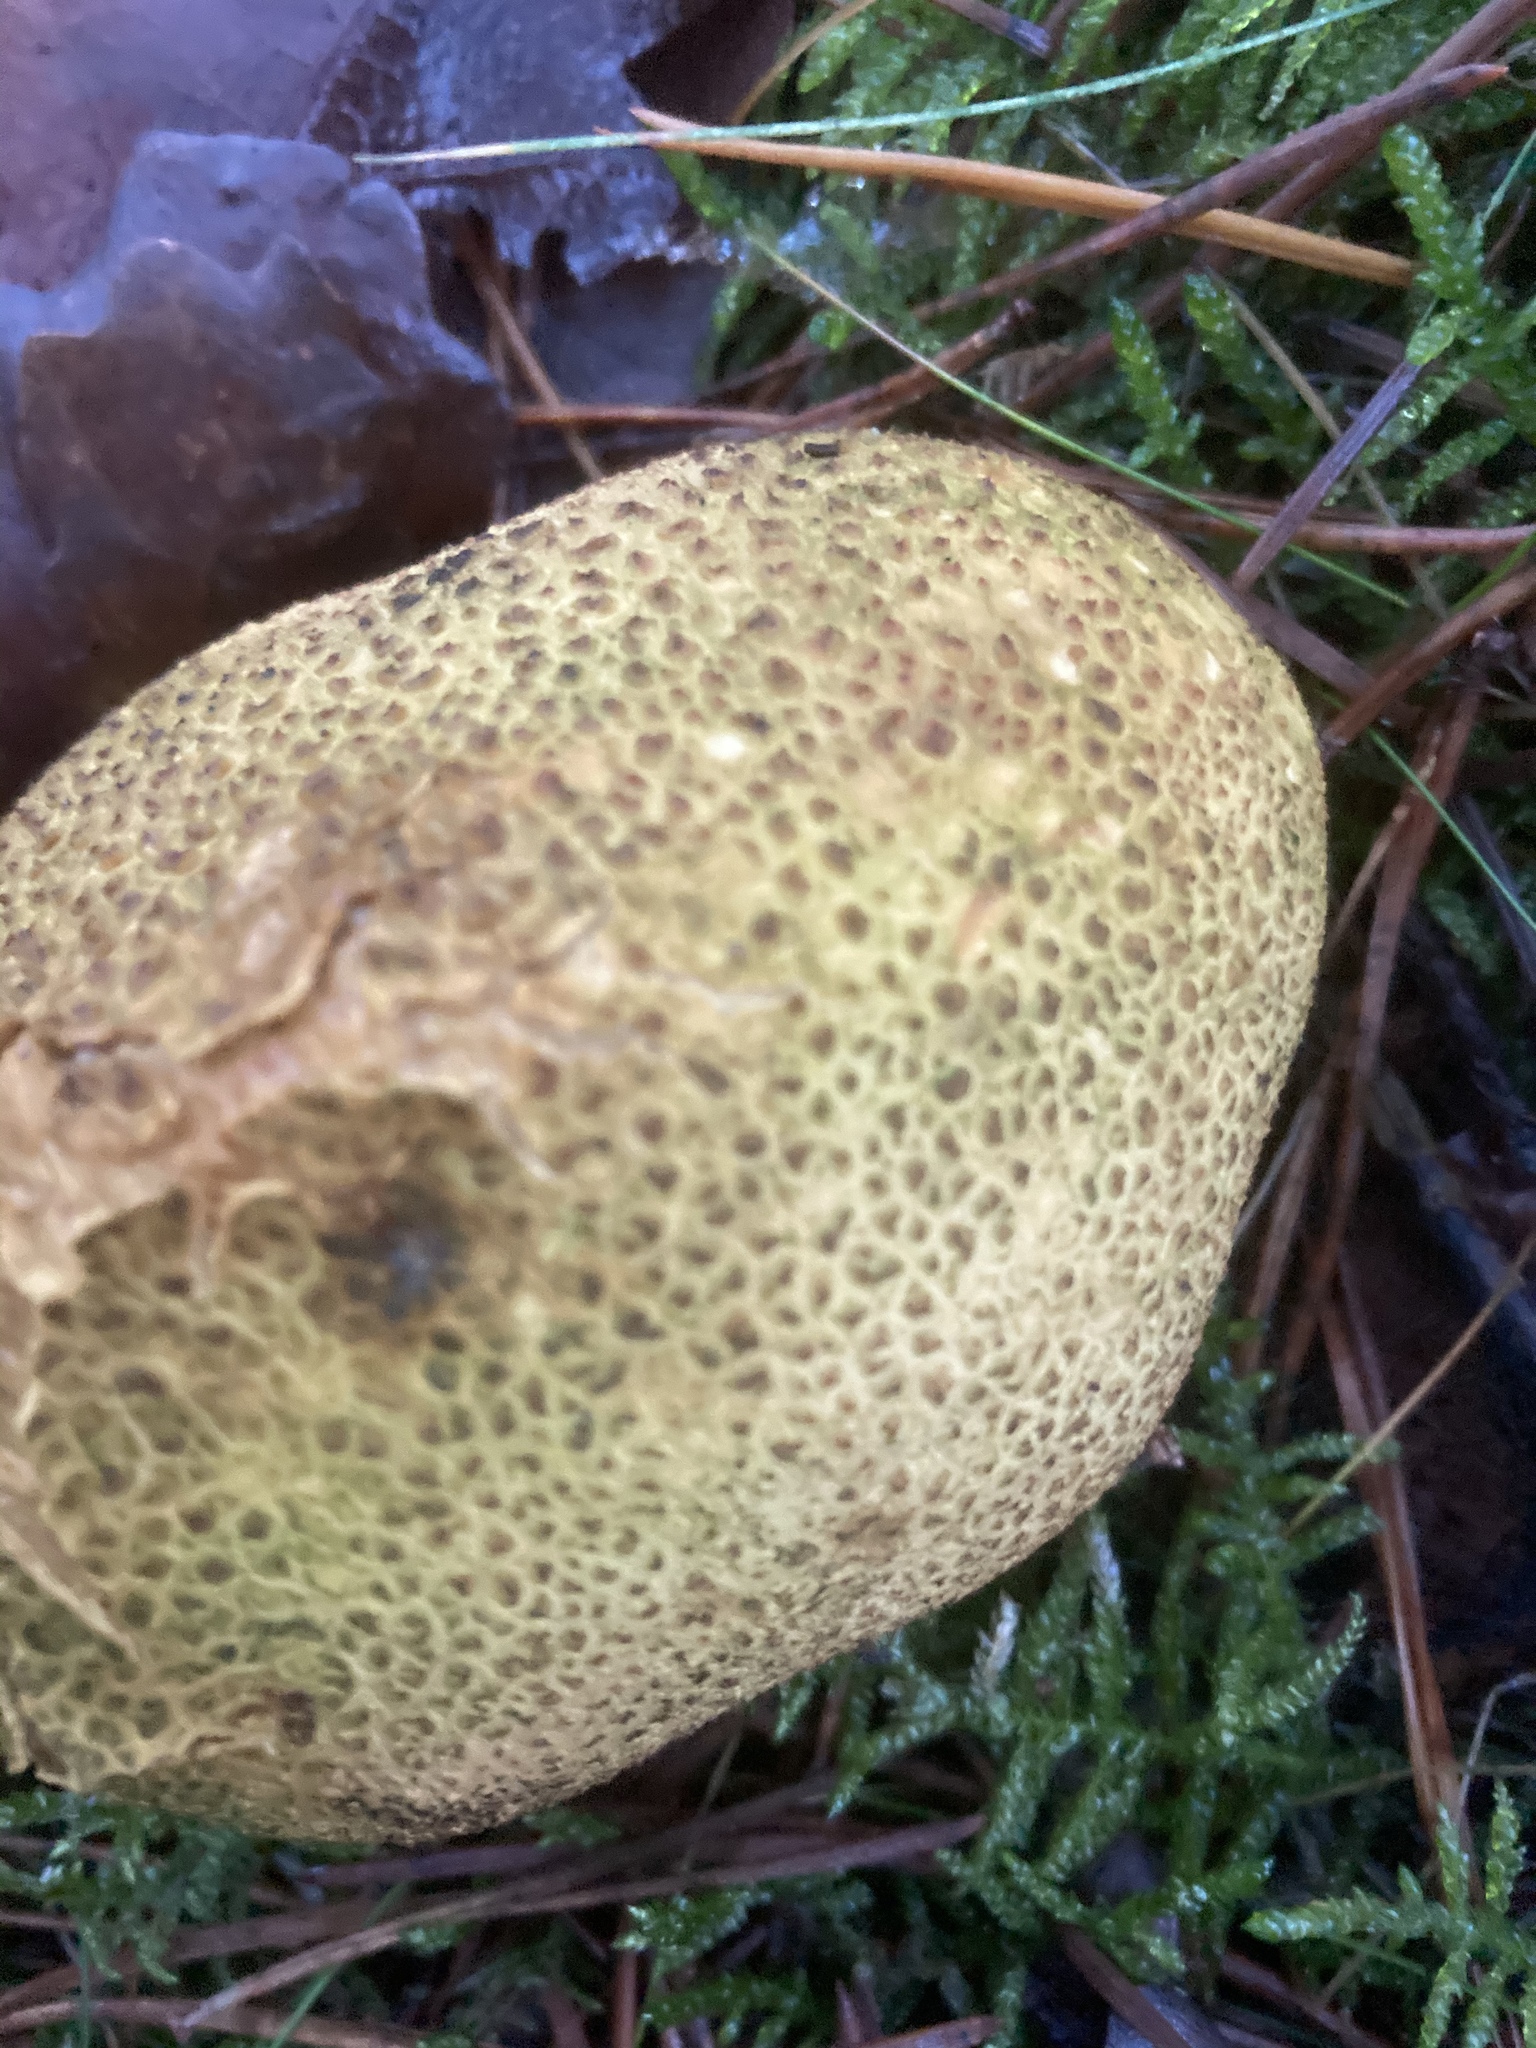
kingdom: Fungi
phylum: Basidiomycota
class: Agaricomycetes
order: Boletales
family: Sclerodermataceae
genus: Scleroderma
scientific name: Scleroderma citrinum
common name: Common earthball
